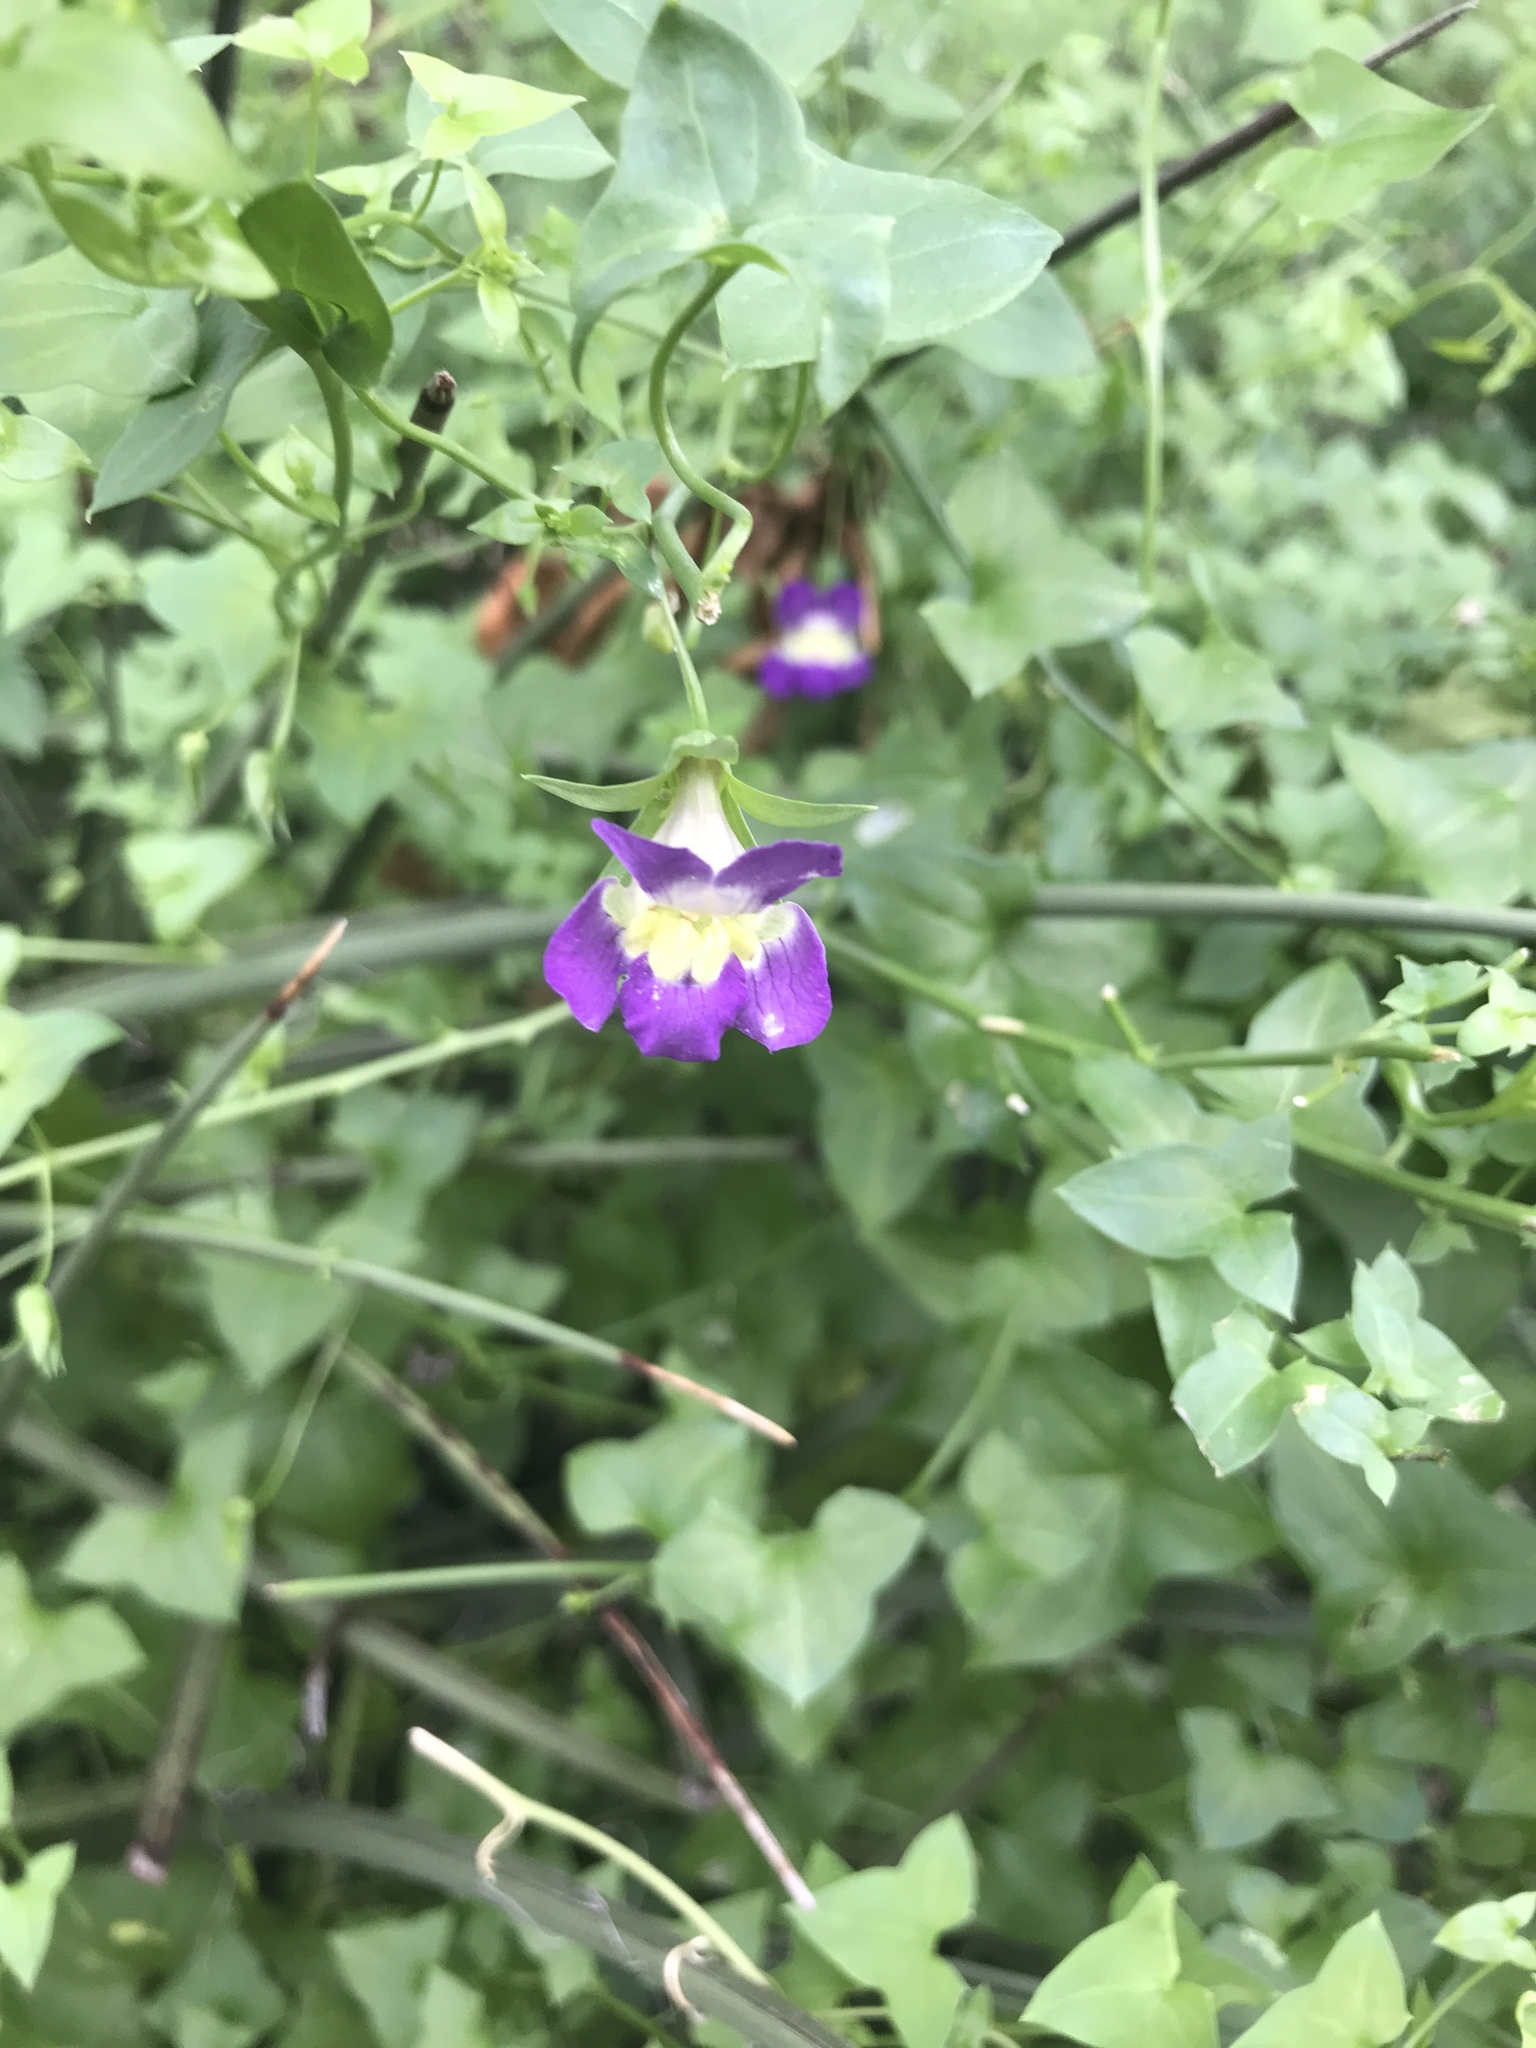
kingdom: Plantae
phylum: Tracheophyta
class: Magnoliopsida
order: Lamiales
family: Plantaginaceae
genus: Maurandella
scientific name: Maurandella antirrhiniflora
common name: Violet twining-snapdragon
